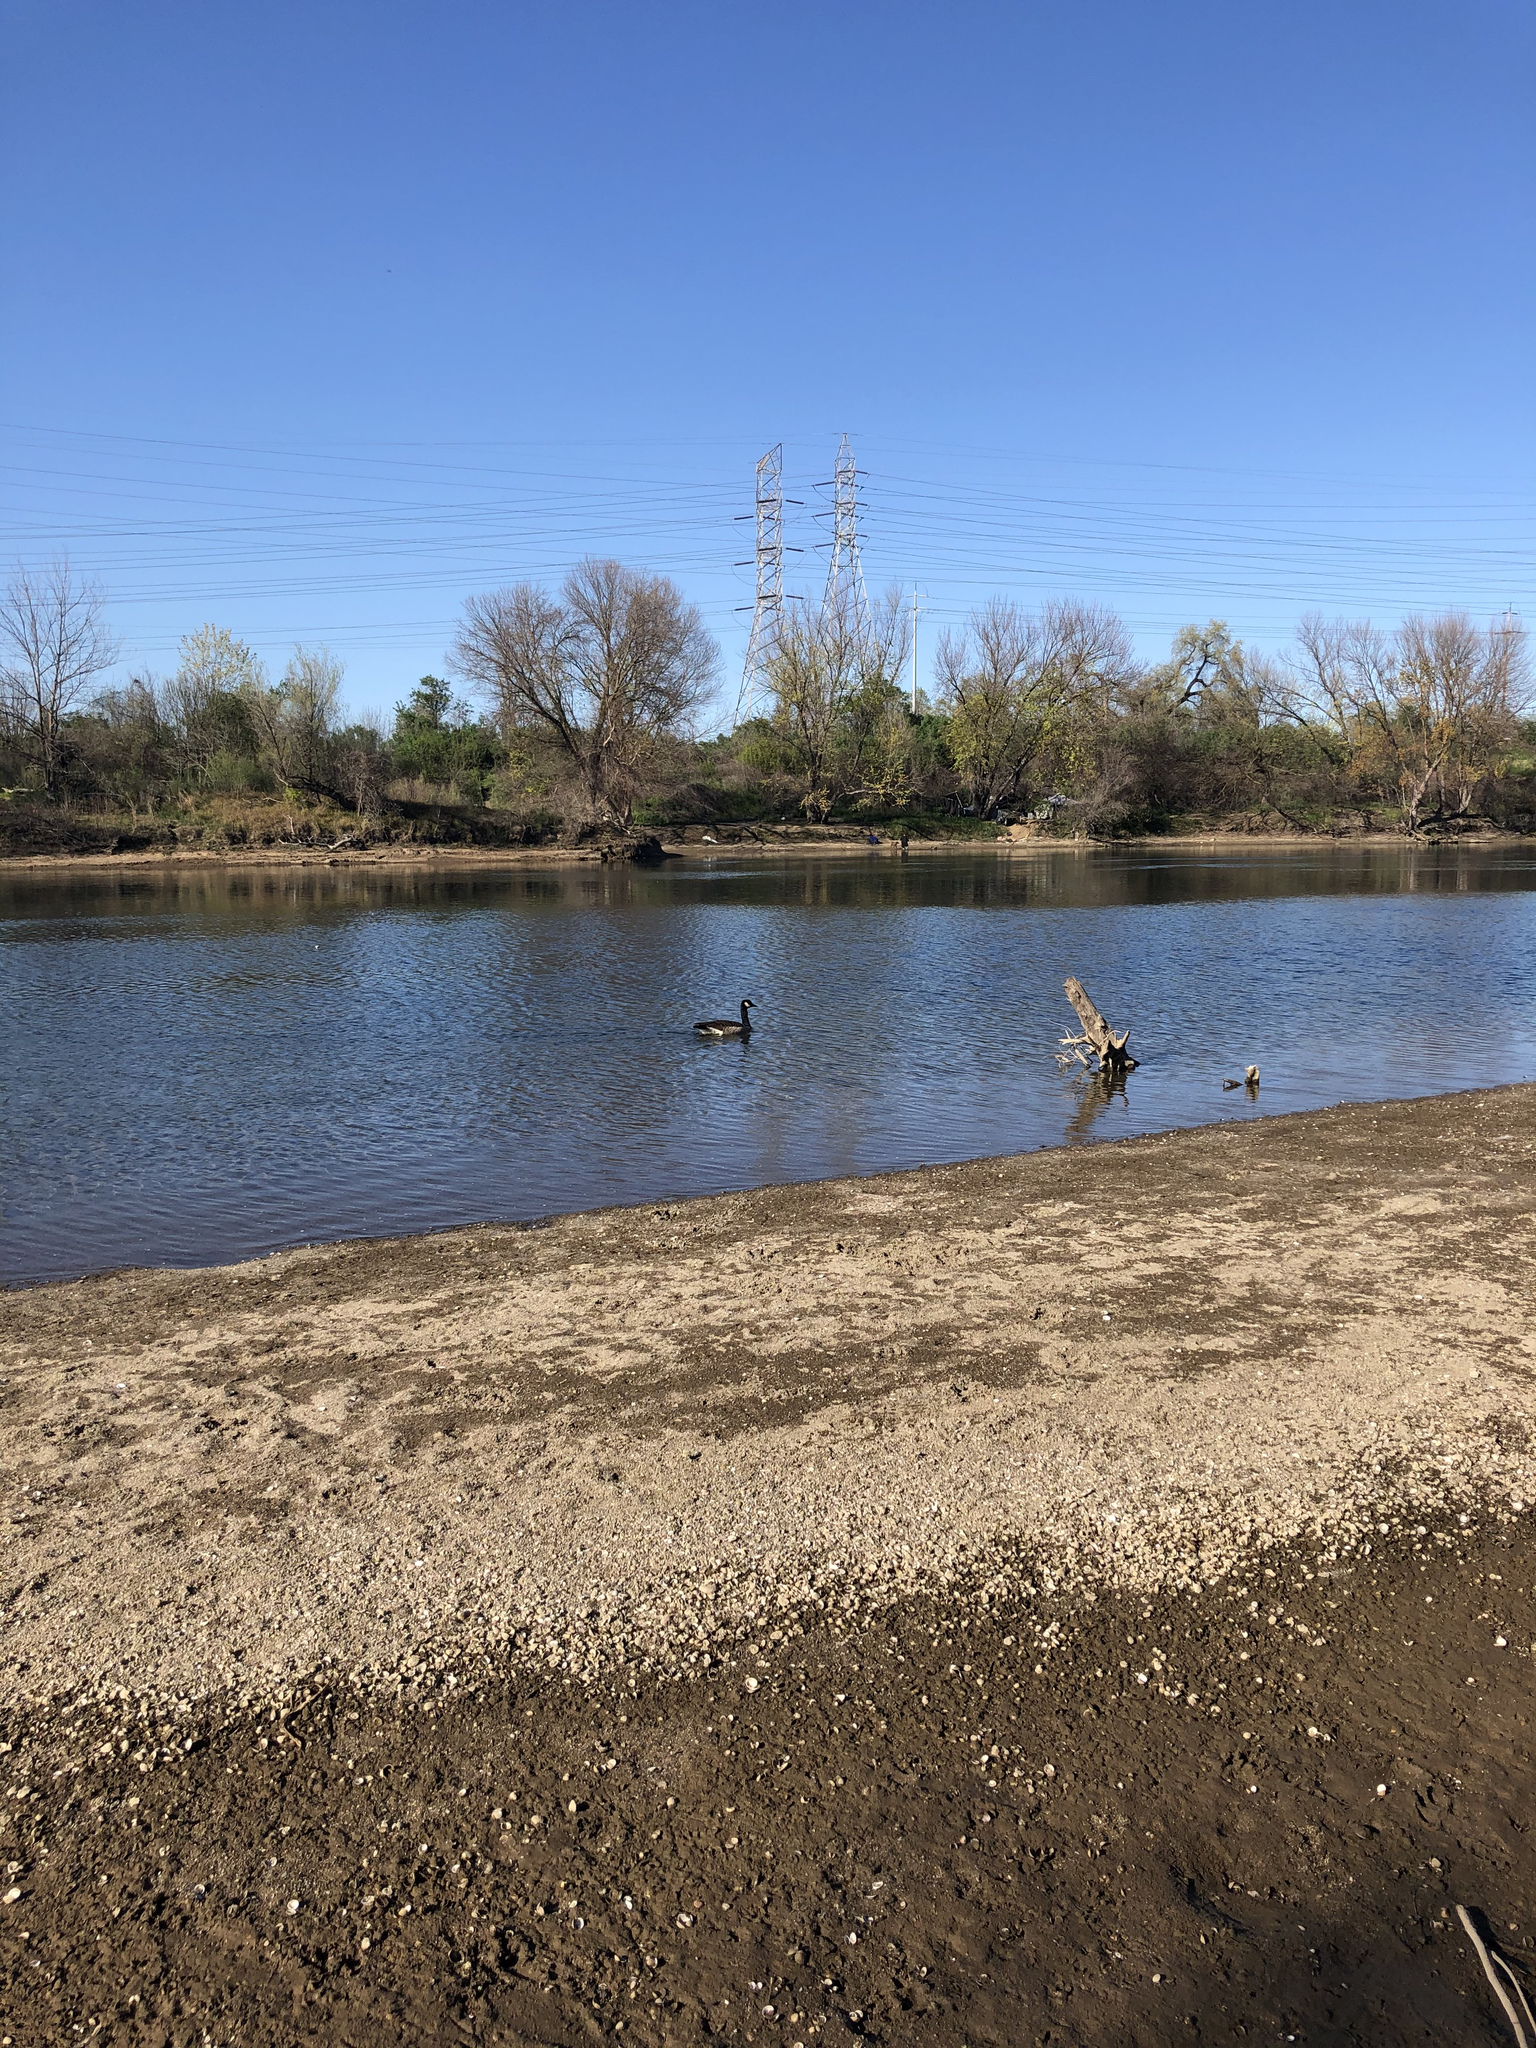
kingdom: Animalia
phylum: Chordata
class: Aves
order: Anseriformes
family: Anatidae
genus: Branta
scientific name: Branta canadensis
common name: Canada goose
